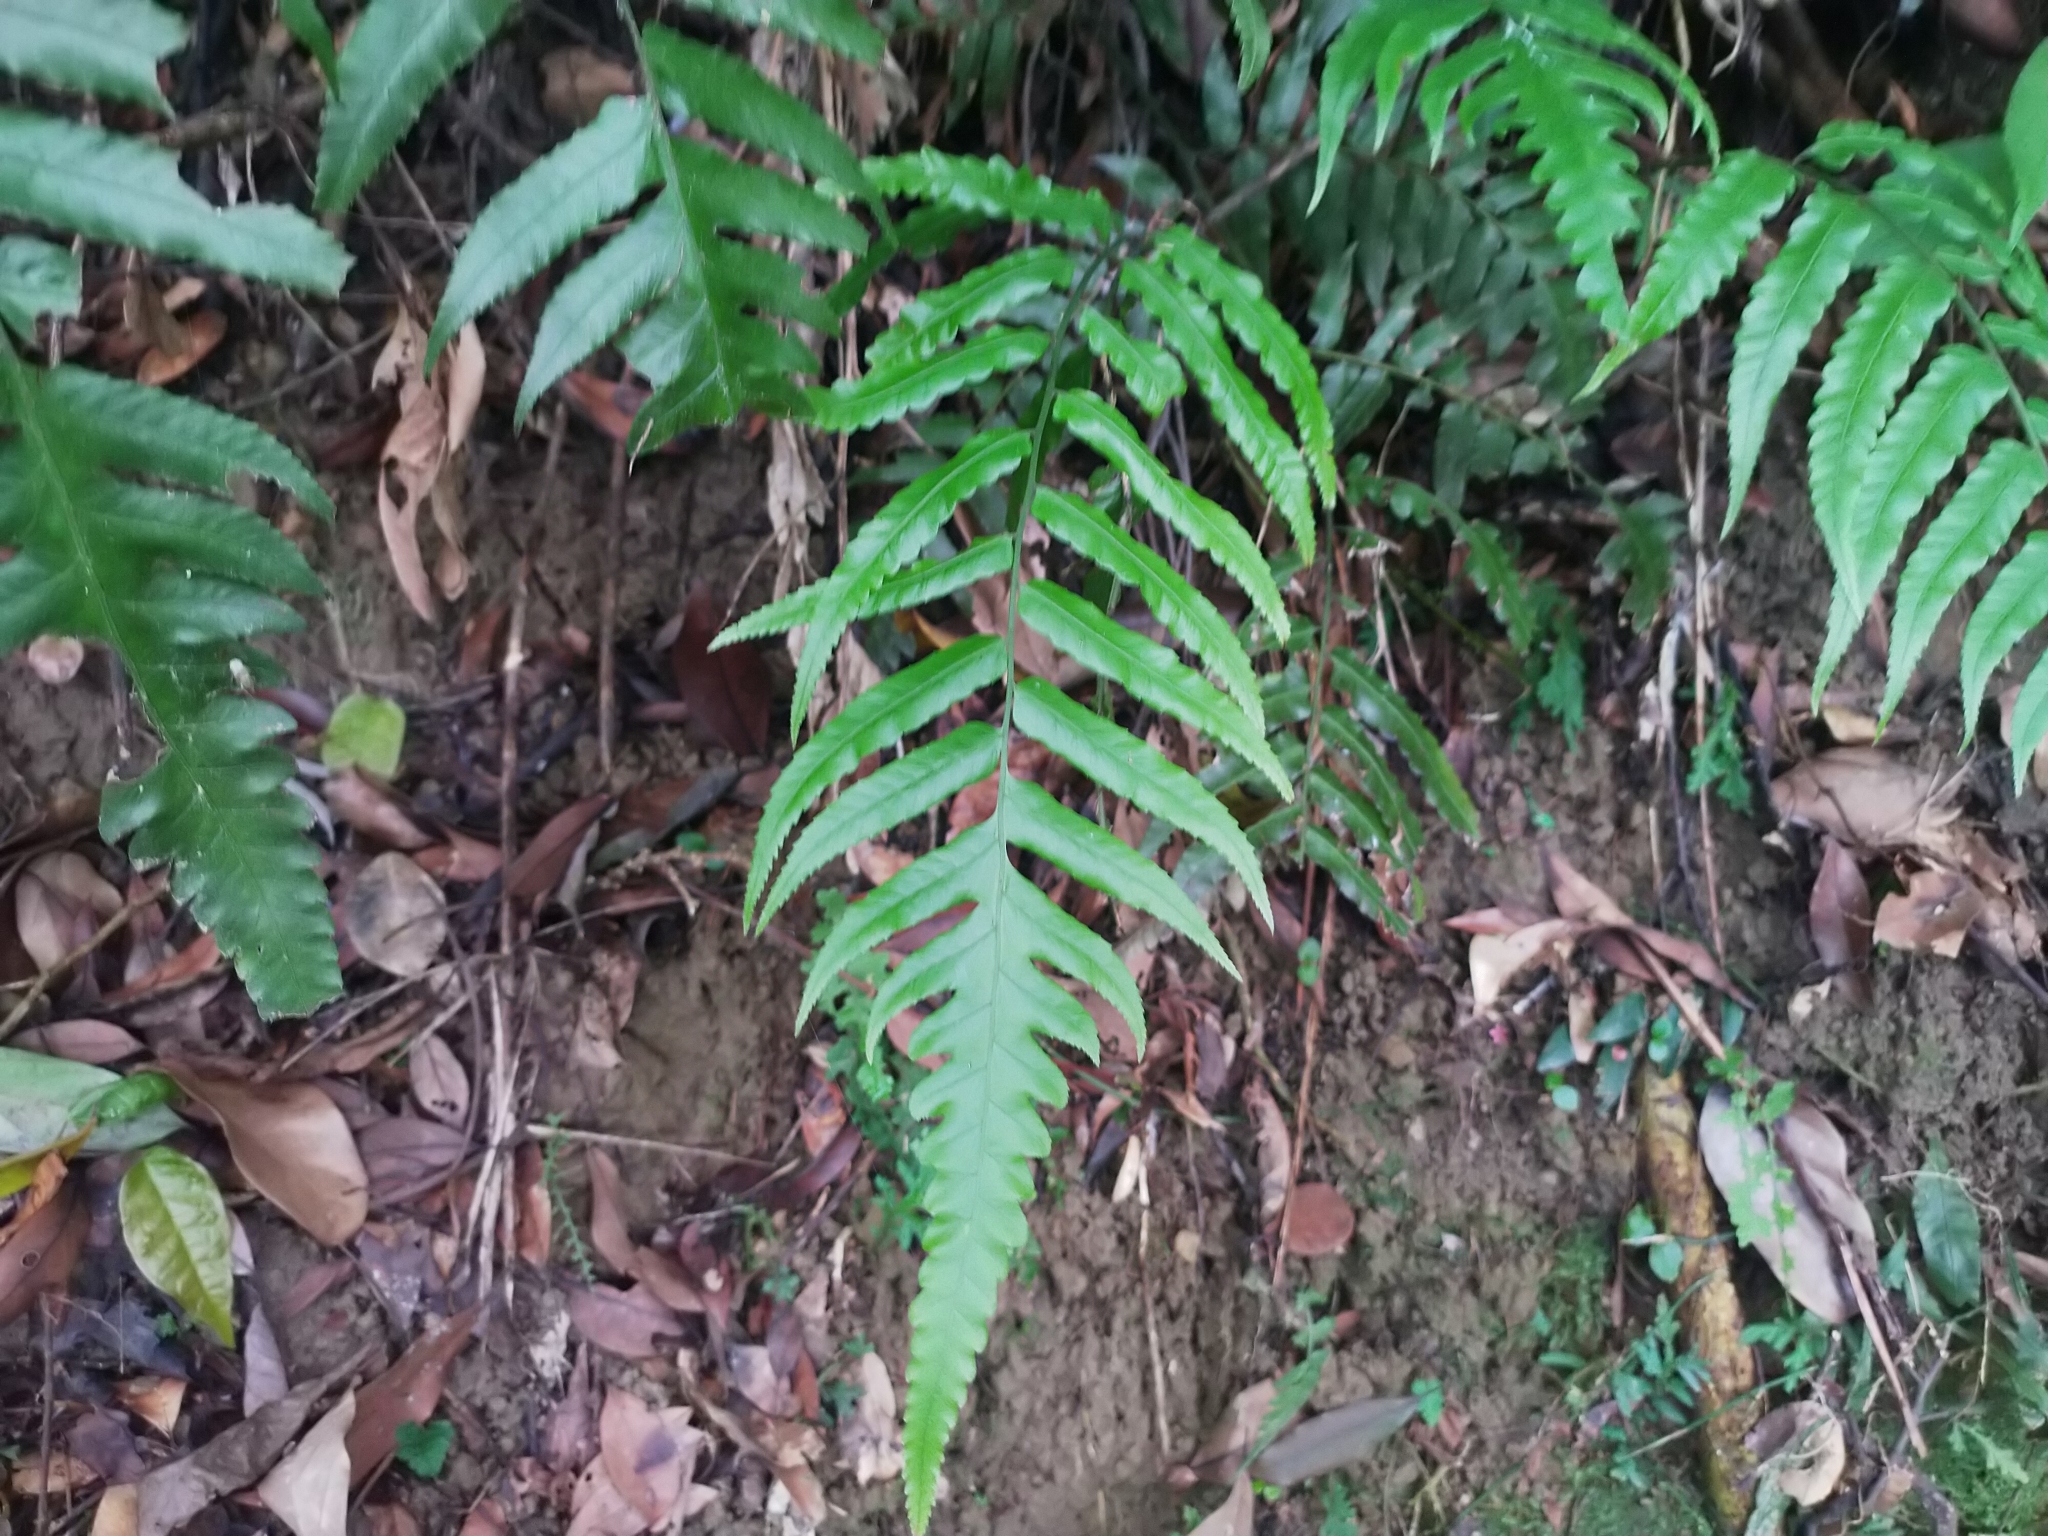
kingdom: Plantae
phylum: Tracheophyta
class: Polypodiopsida
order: Polypodiales
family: Athyriaceae
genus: Diplazium
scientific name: Diplazium dilatatum
